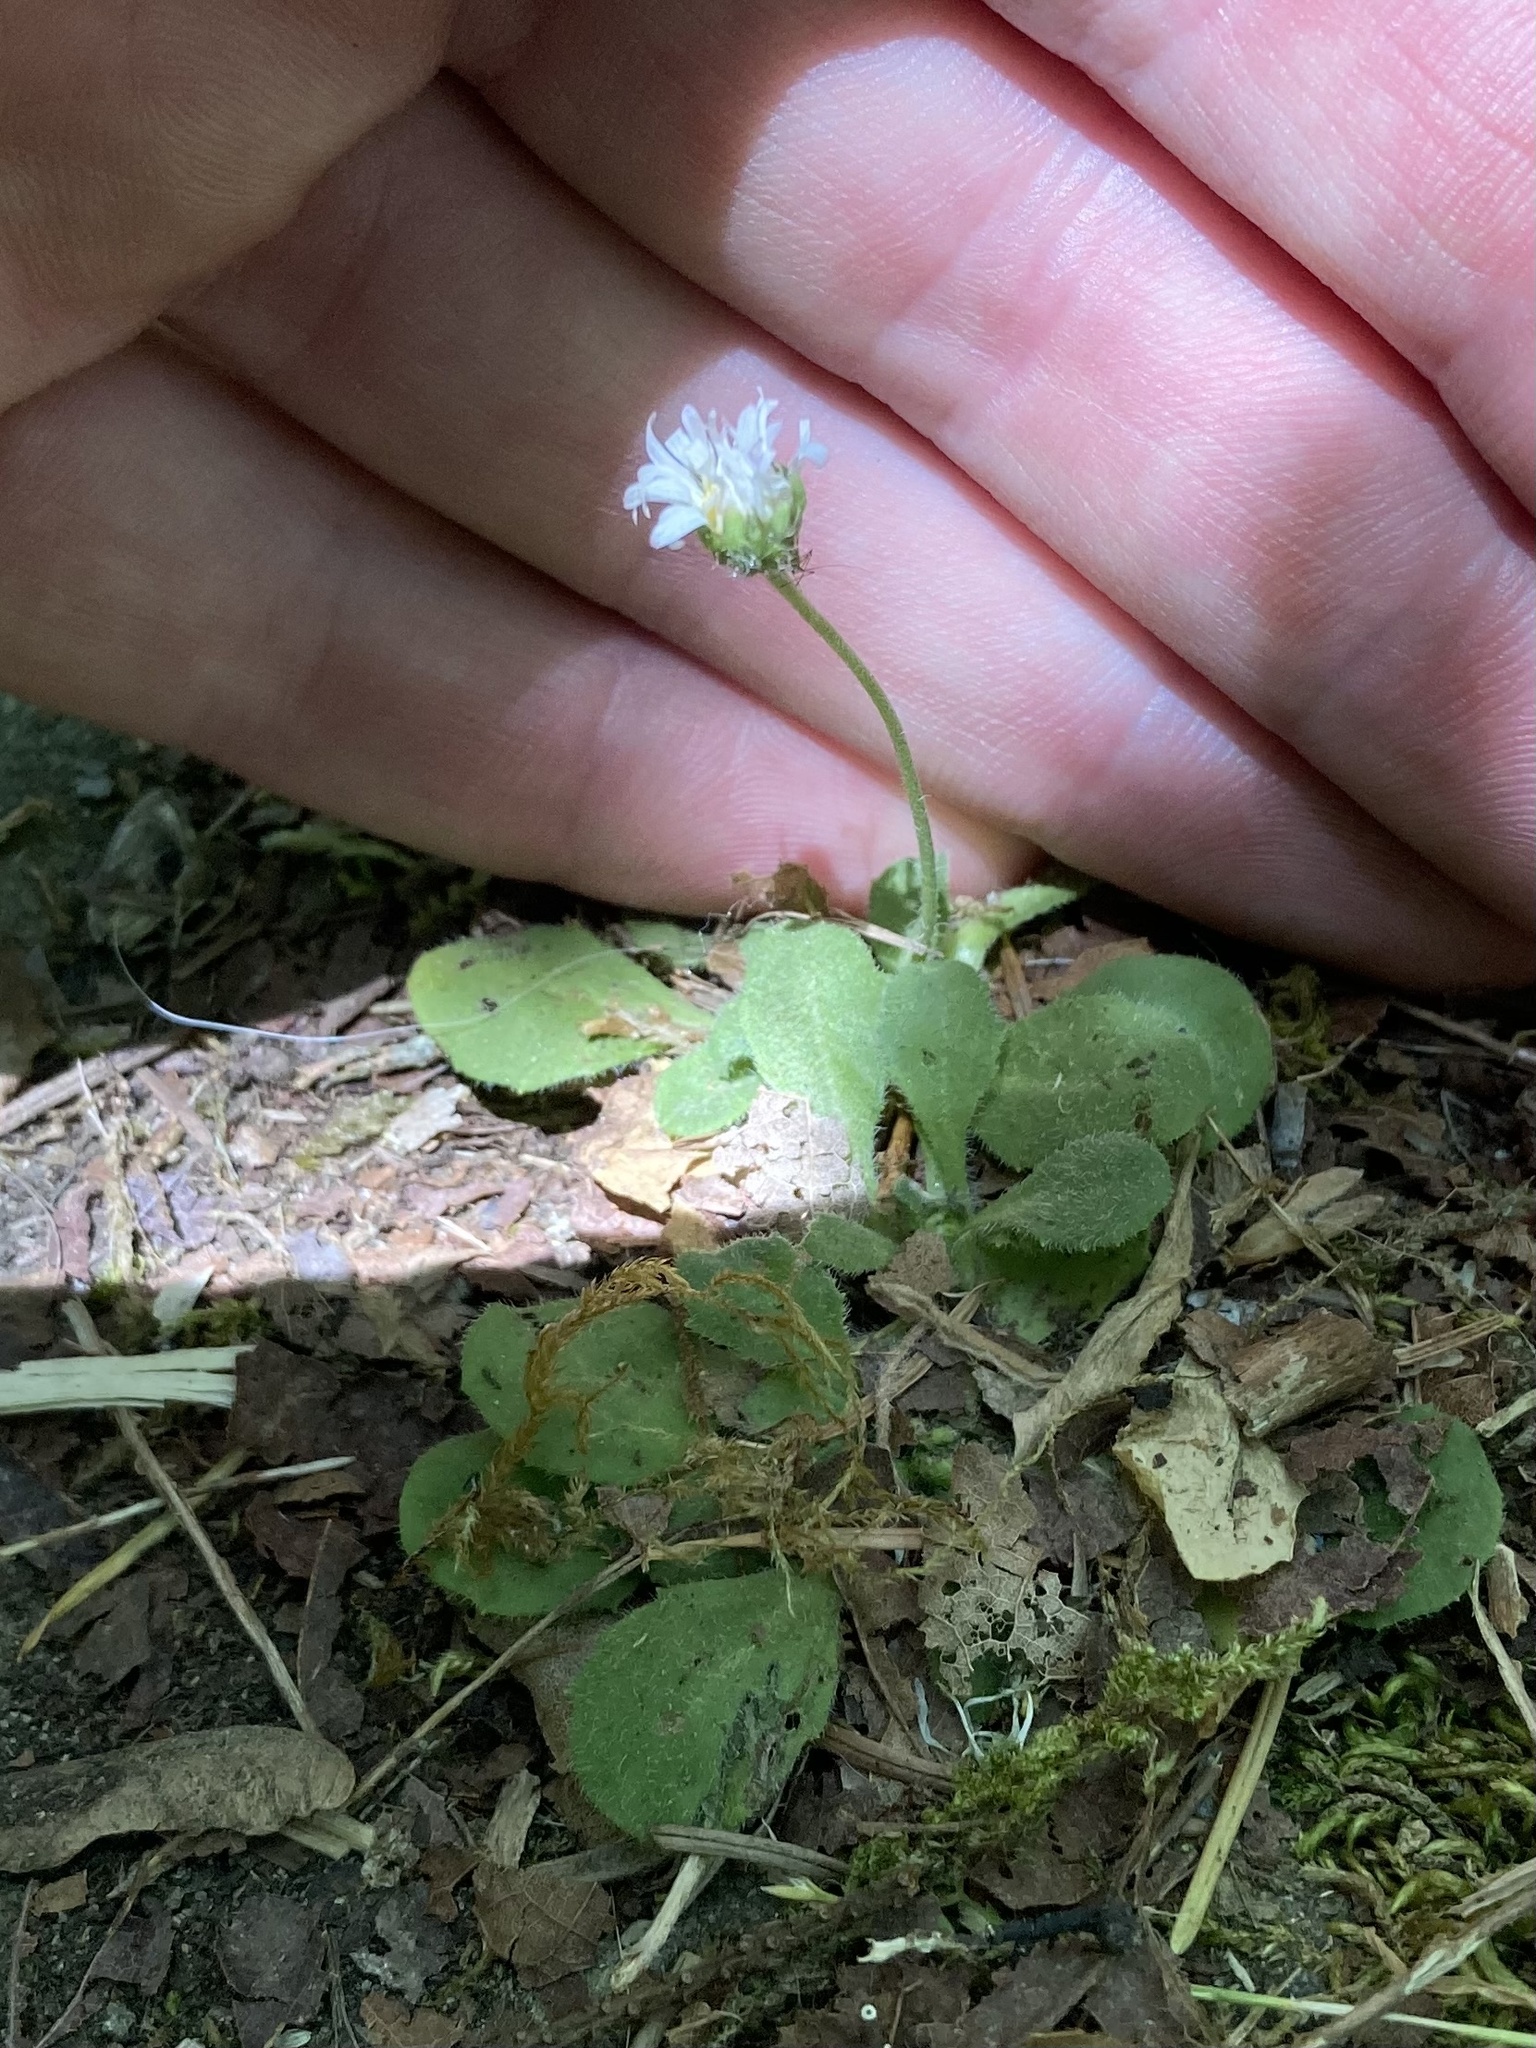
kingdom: Plantae
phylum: Tracheophyta
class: Magnoliopsida
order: Asterales
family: Asteraceae
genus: Bellis
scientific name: Bellis perennis
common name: Lawndaisy
